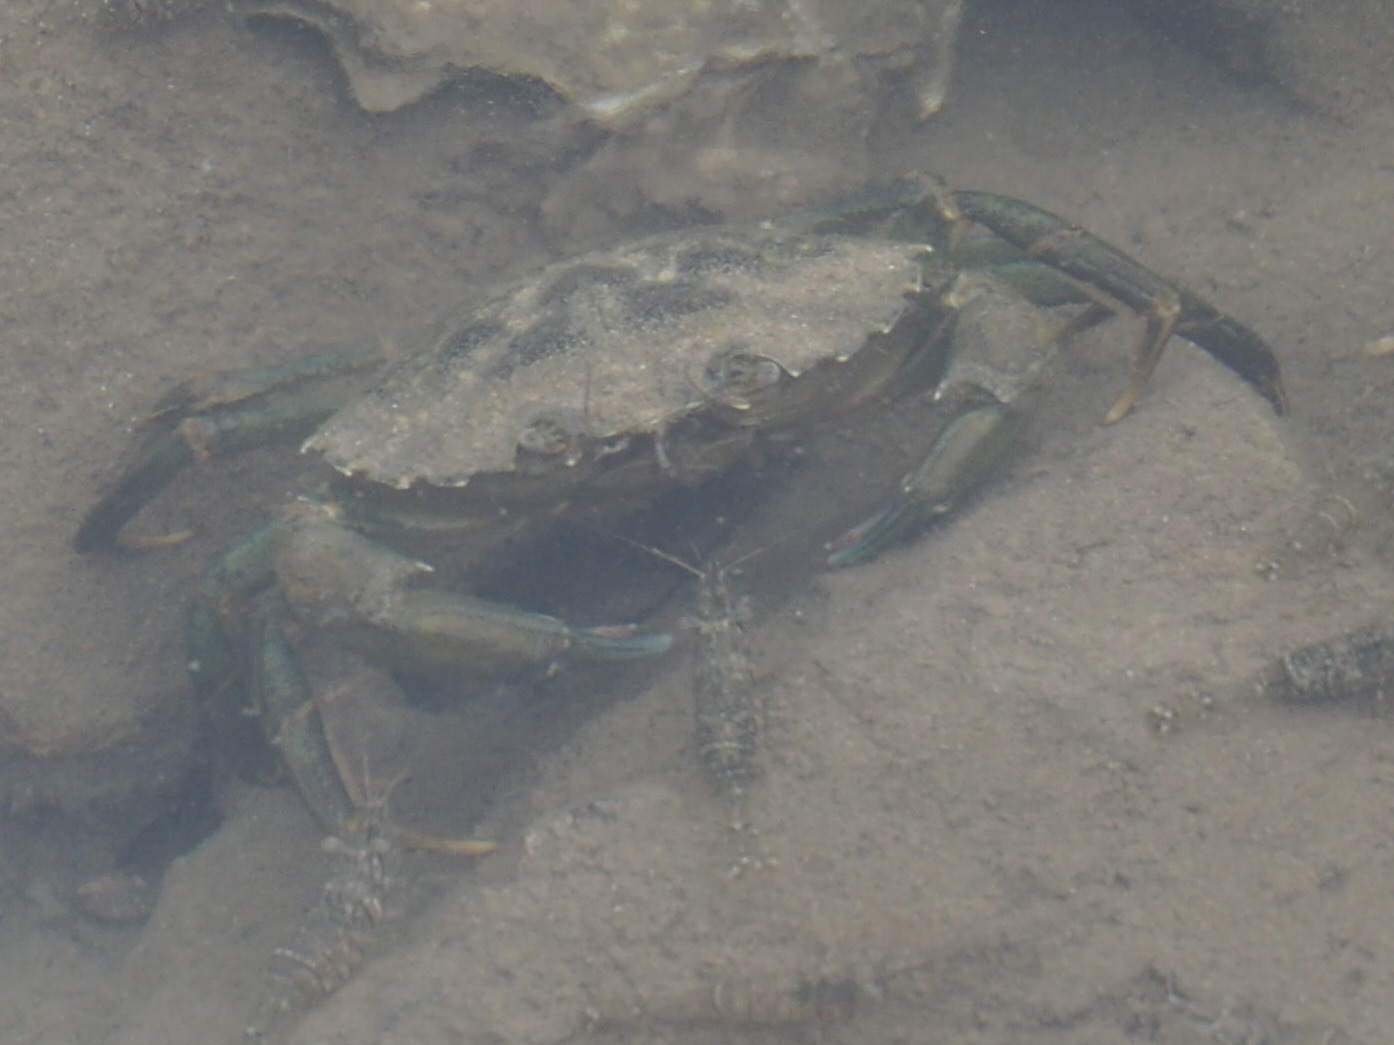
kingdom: Animalia
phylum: Arthropoda
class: Malacostraca
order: Decapoda
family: Carcinidae
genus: Carcinus
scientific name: Carcinus maenas
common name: European green crab
